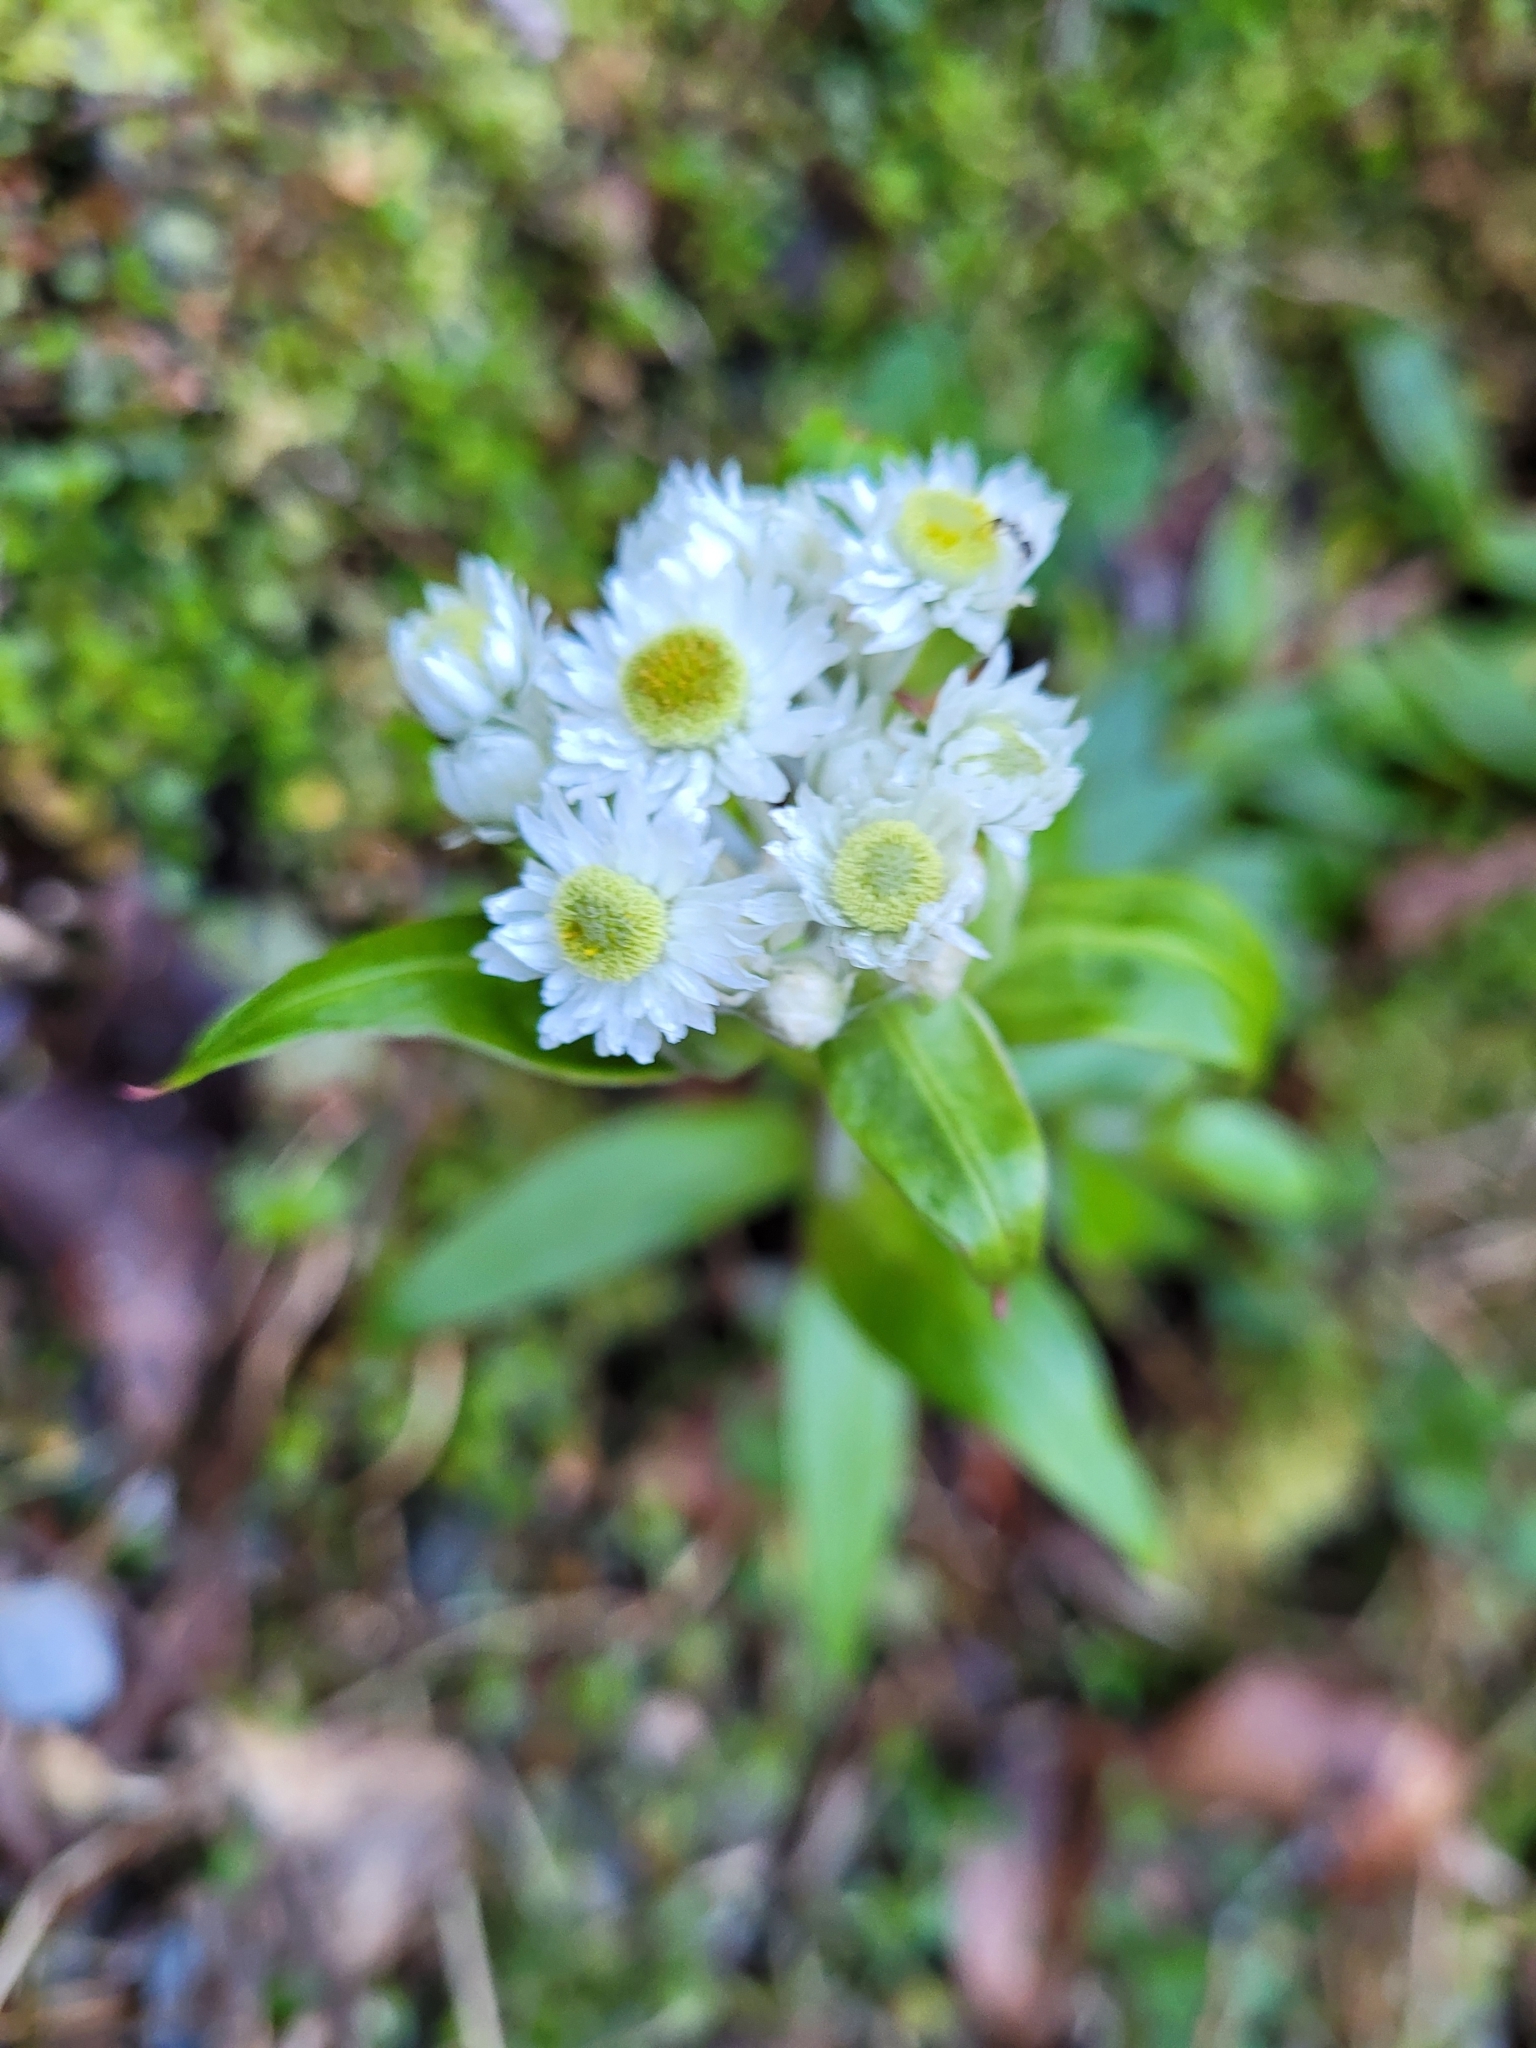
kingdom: Plantae
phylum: Tracheophyta
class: Magnoliopsida
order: Asterales
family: Asteraceae
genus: Anaphalioides
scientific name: Anaphalioides trinervis
